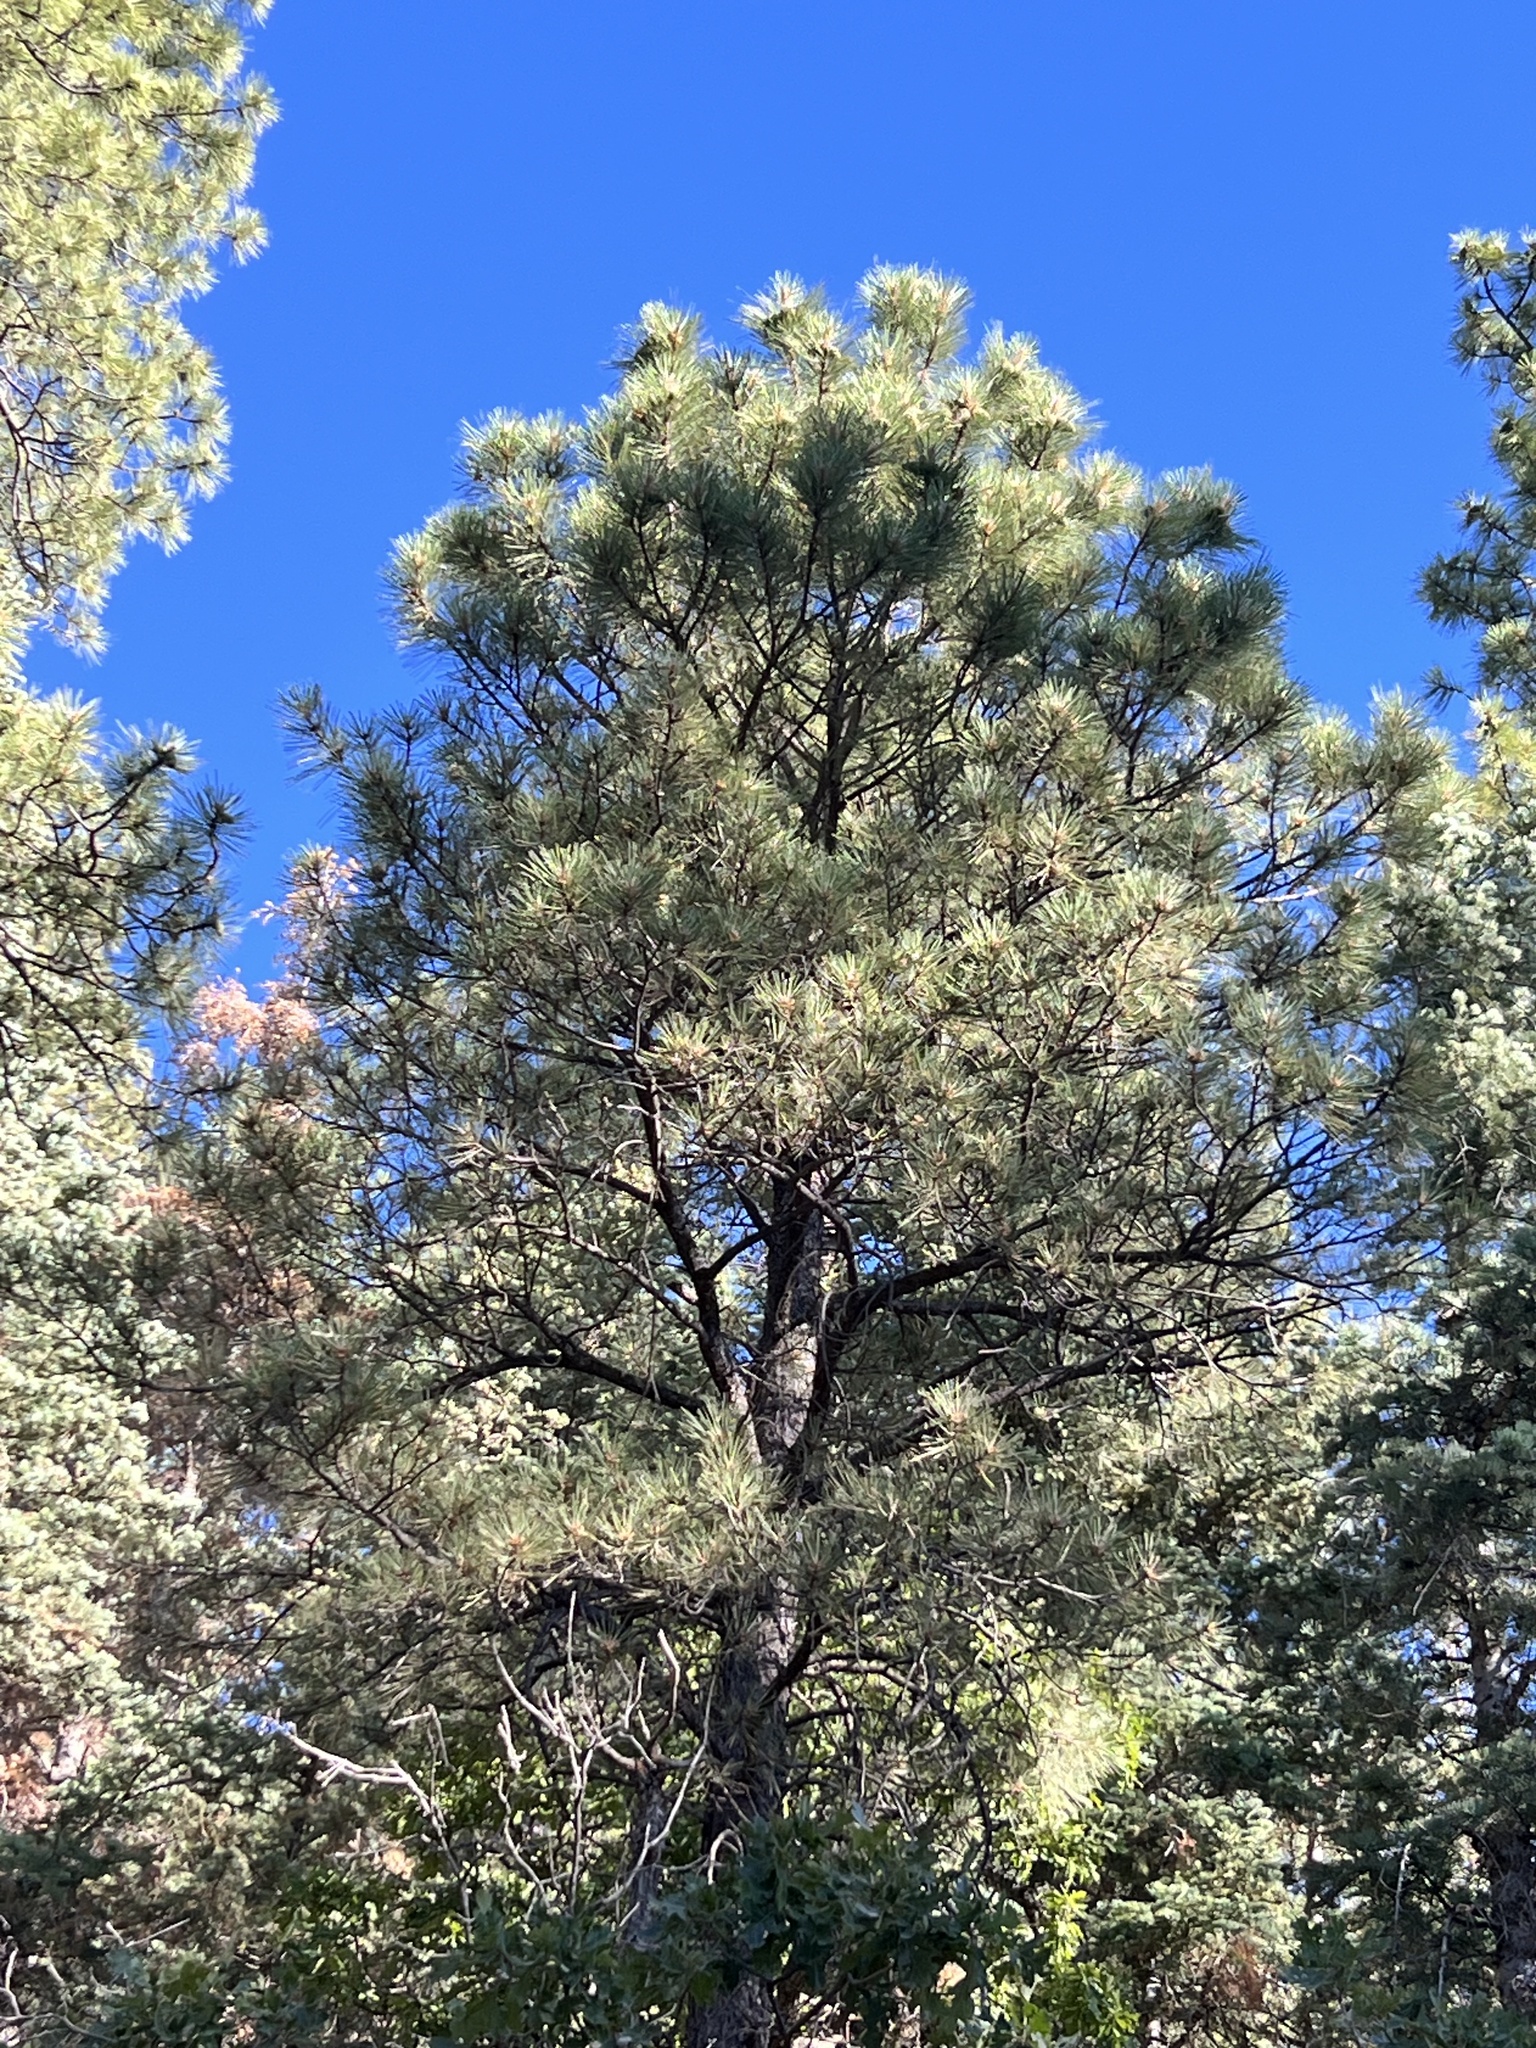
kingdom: Plantae
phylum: Tracheophyta
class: Pinopsida
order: Pinales
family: Pinaceae
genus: Pinus
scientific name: Pinus ponderosa
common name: Western yellow-pine
